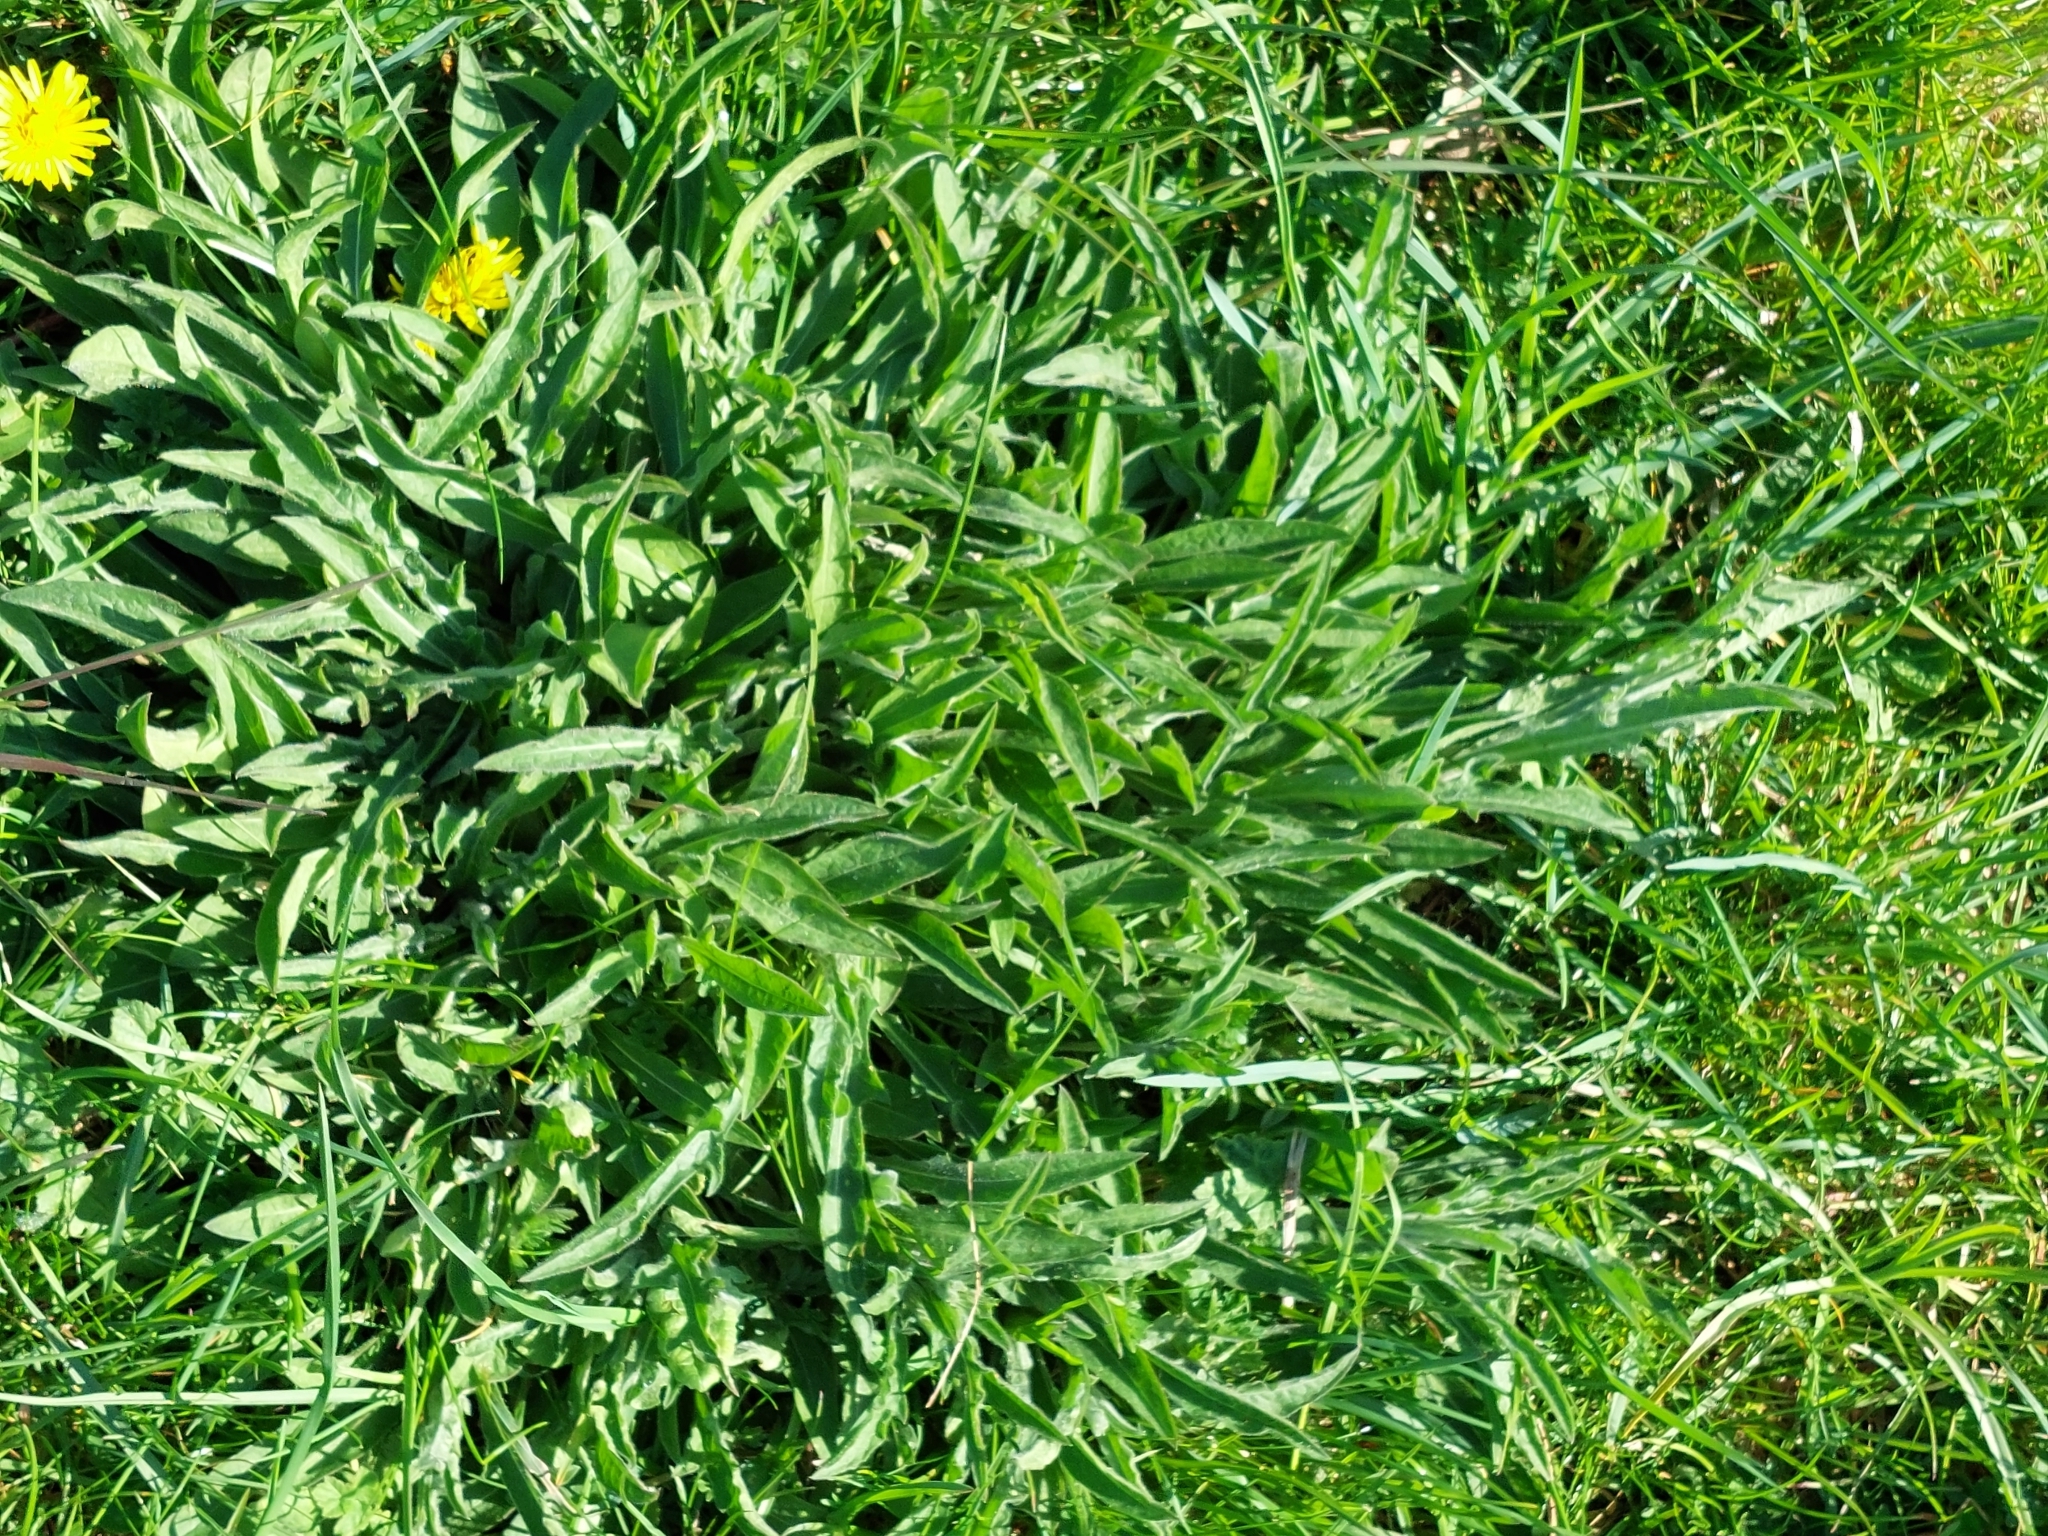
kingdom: Plantae
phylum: Tracheophyta
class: Magnoliopsida
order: Lamiales
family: Plantaginaceae
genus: Plantago
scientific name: Plantago lanceolata
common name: Ribwort plantain
